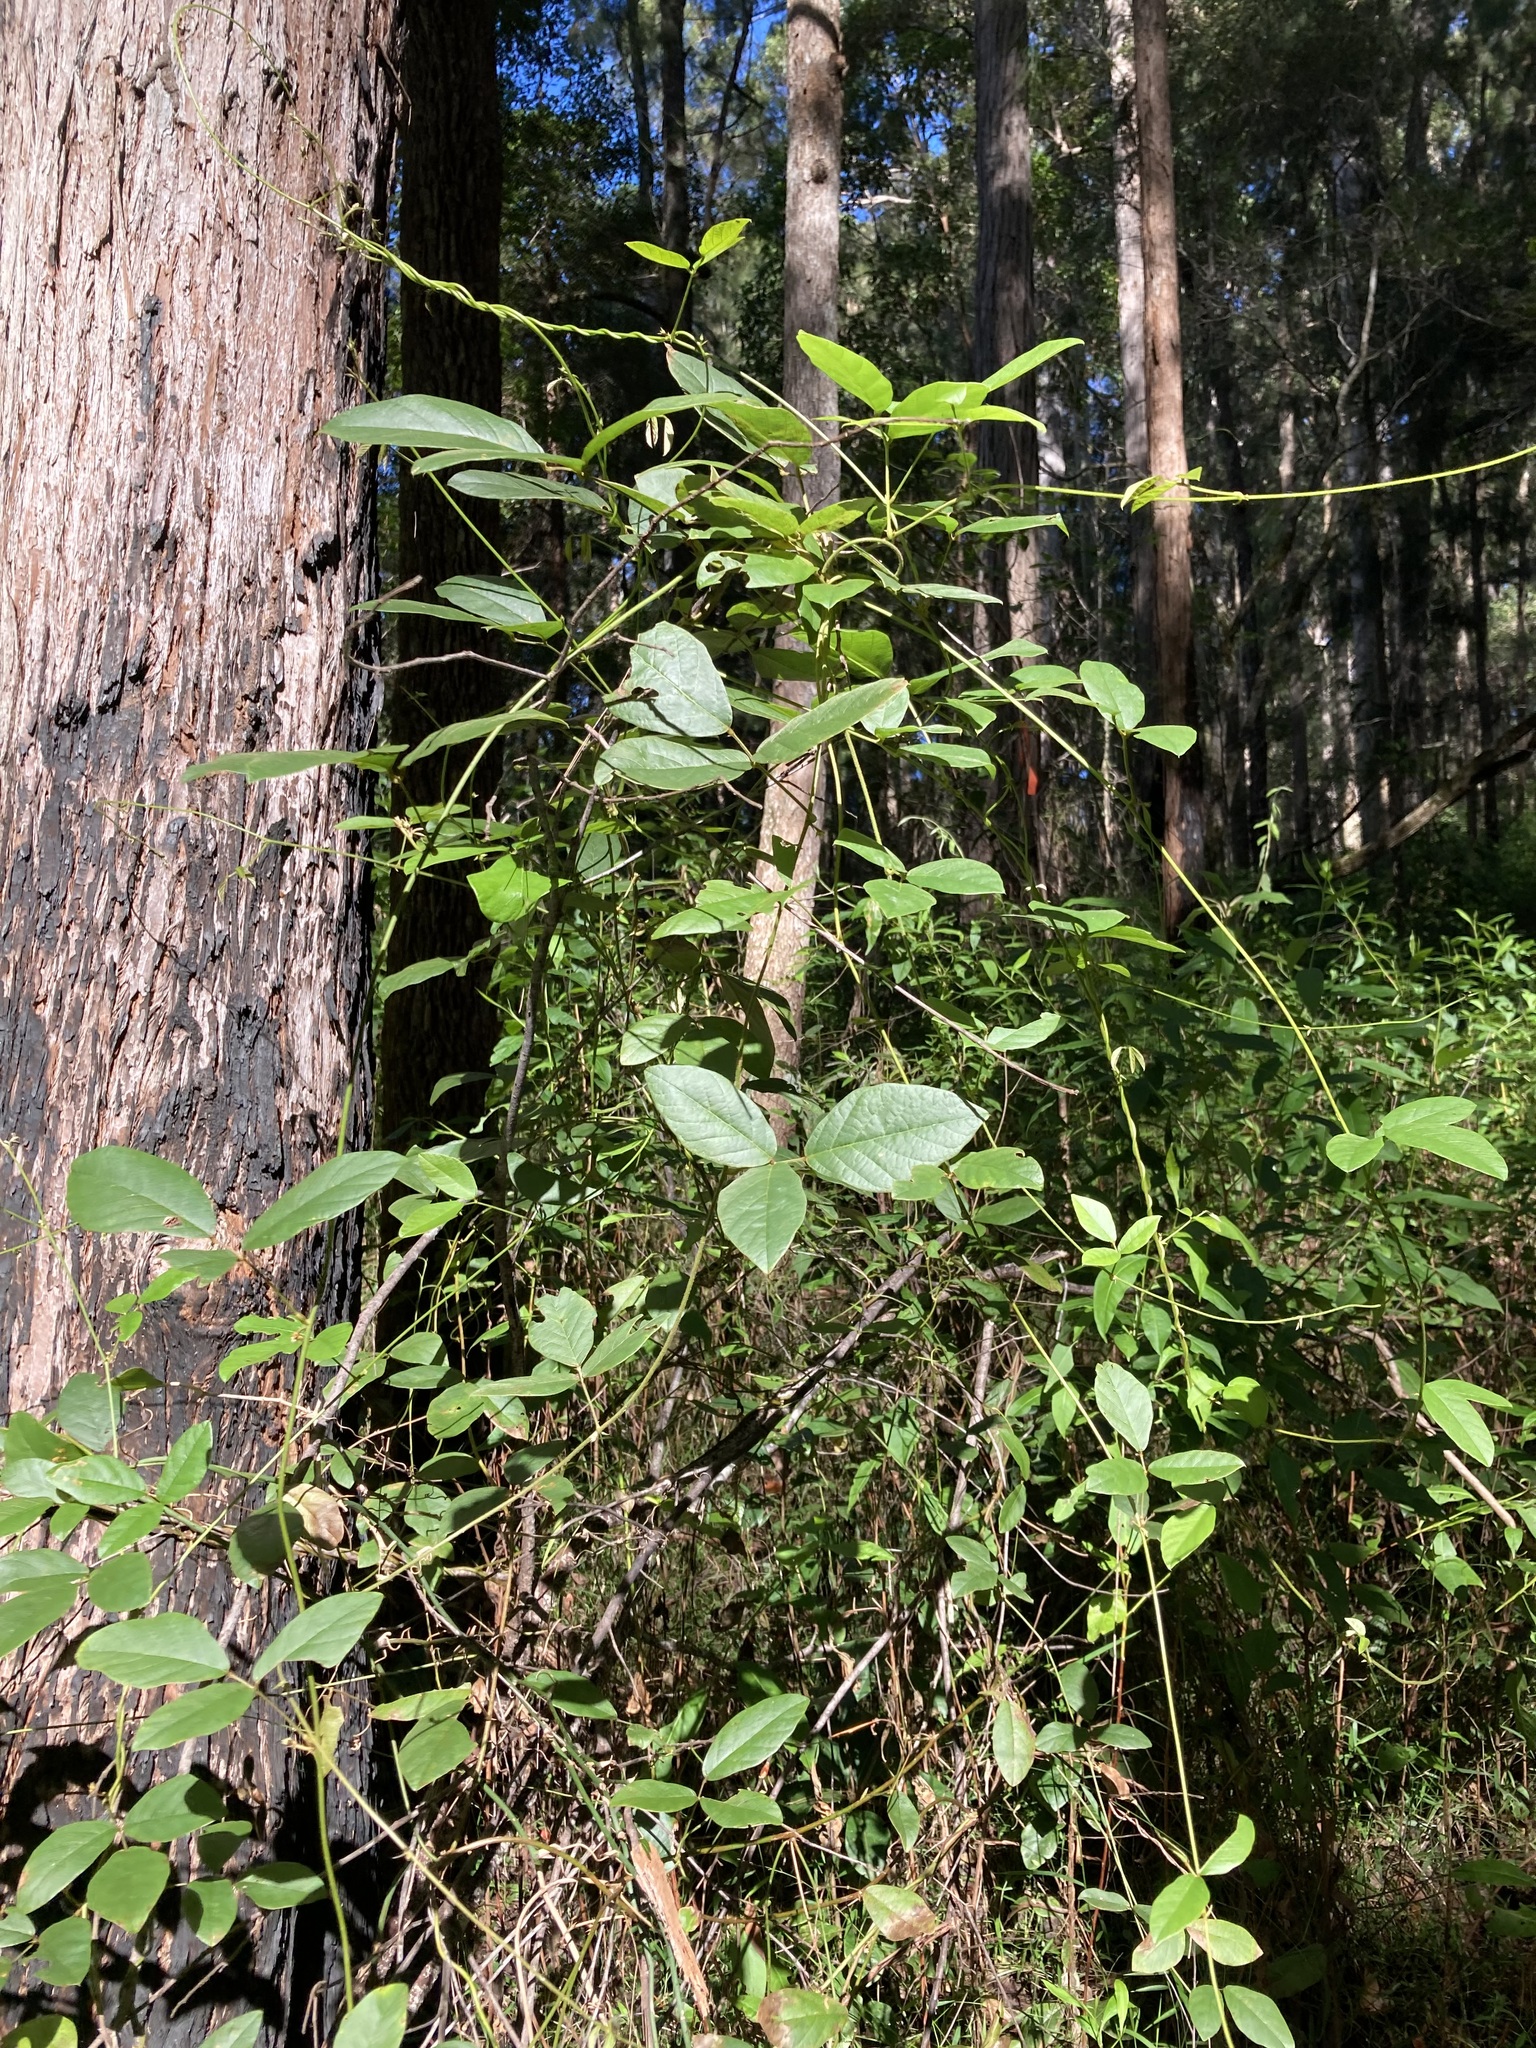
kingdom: Plantae
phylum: Tracheophyta
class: Magnoliopsida
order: Fabales
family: Fabaceae
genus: Kennedia
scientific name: Kennedia rubicunda
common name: Red kennedy-pea
